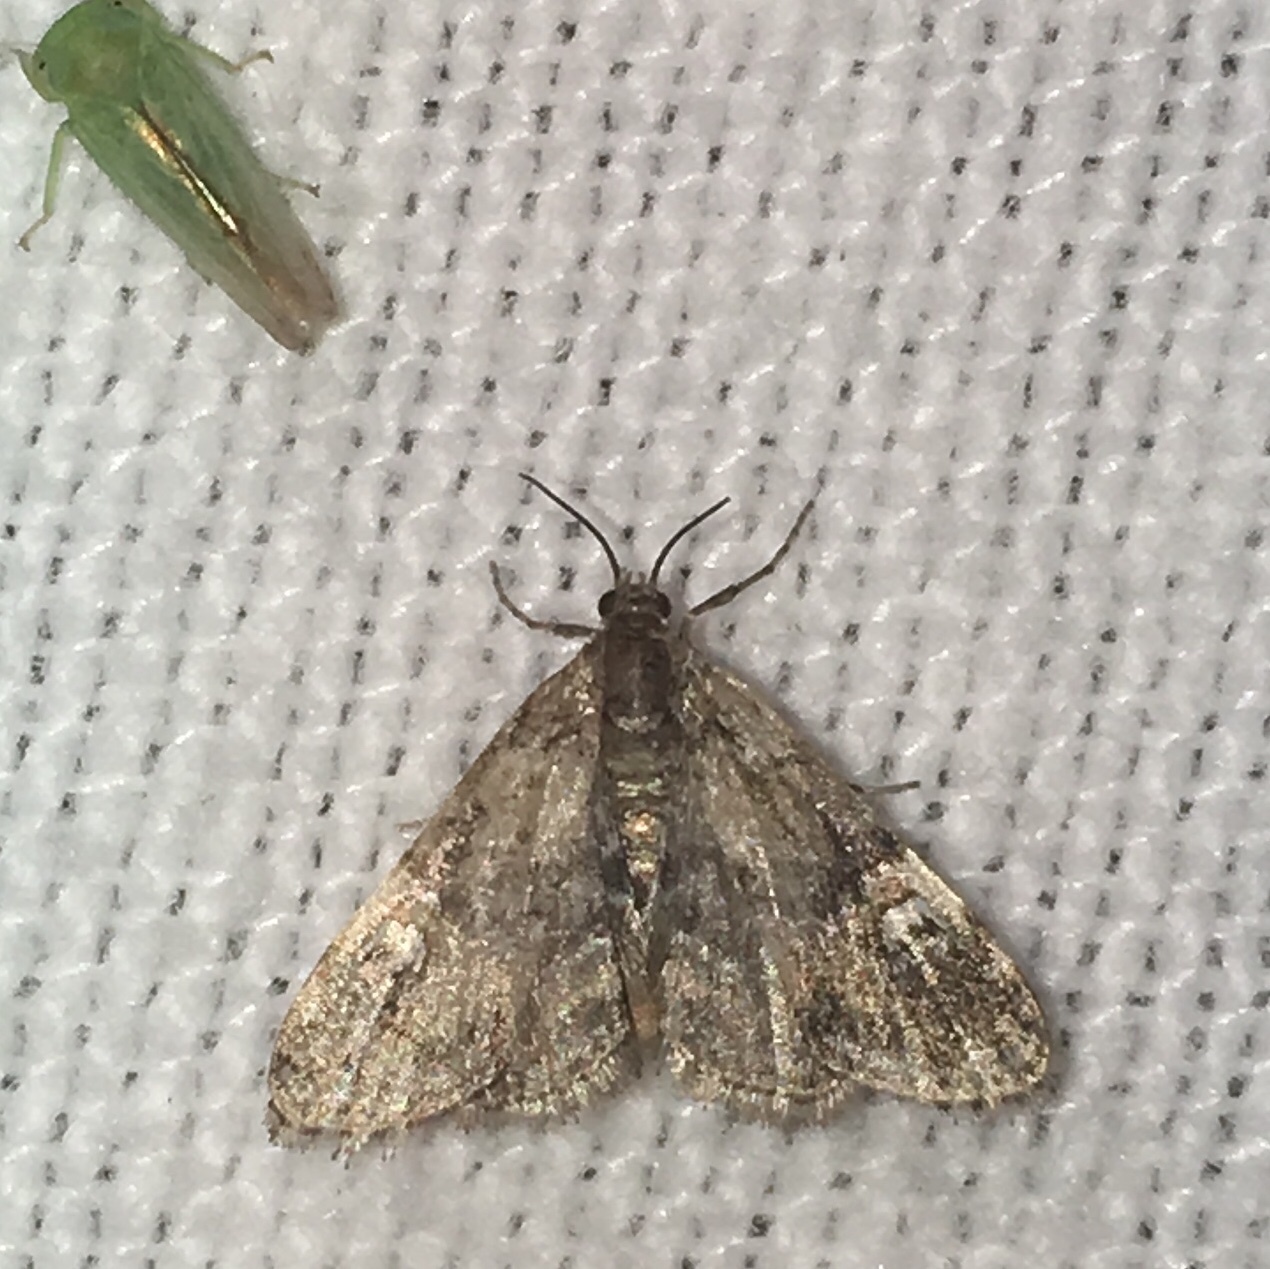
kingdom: Animalia
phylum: Arthropoda
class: Insecta
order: Lepidoptera
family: Crambidae
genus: Elophila
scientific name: Elophila obliteralis
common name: Waterlily leafcutter moth
